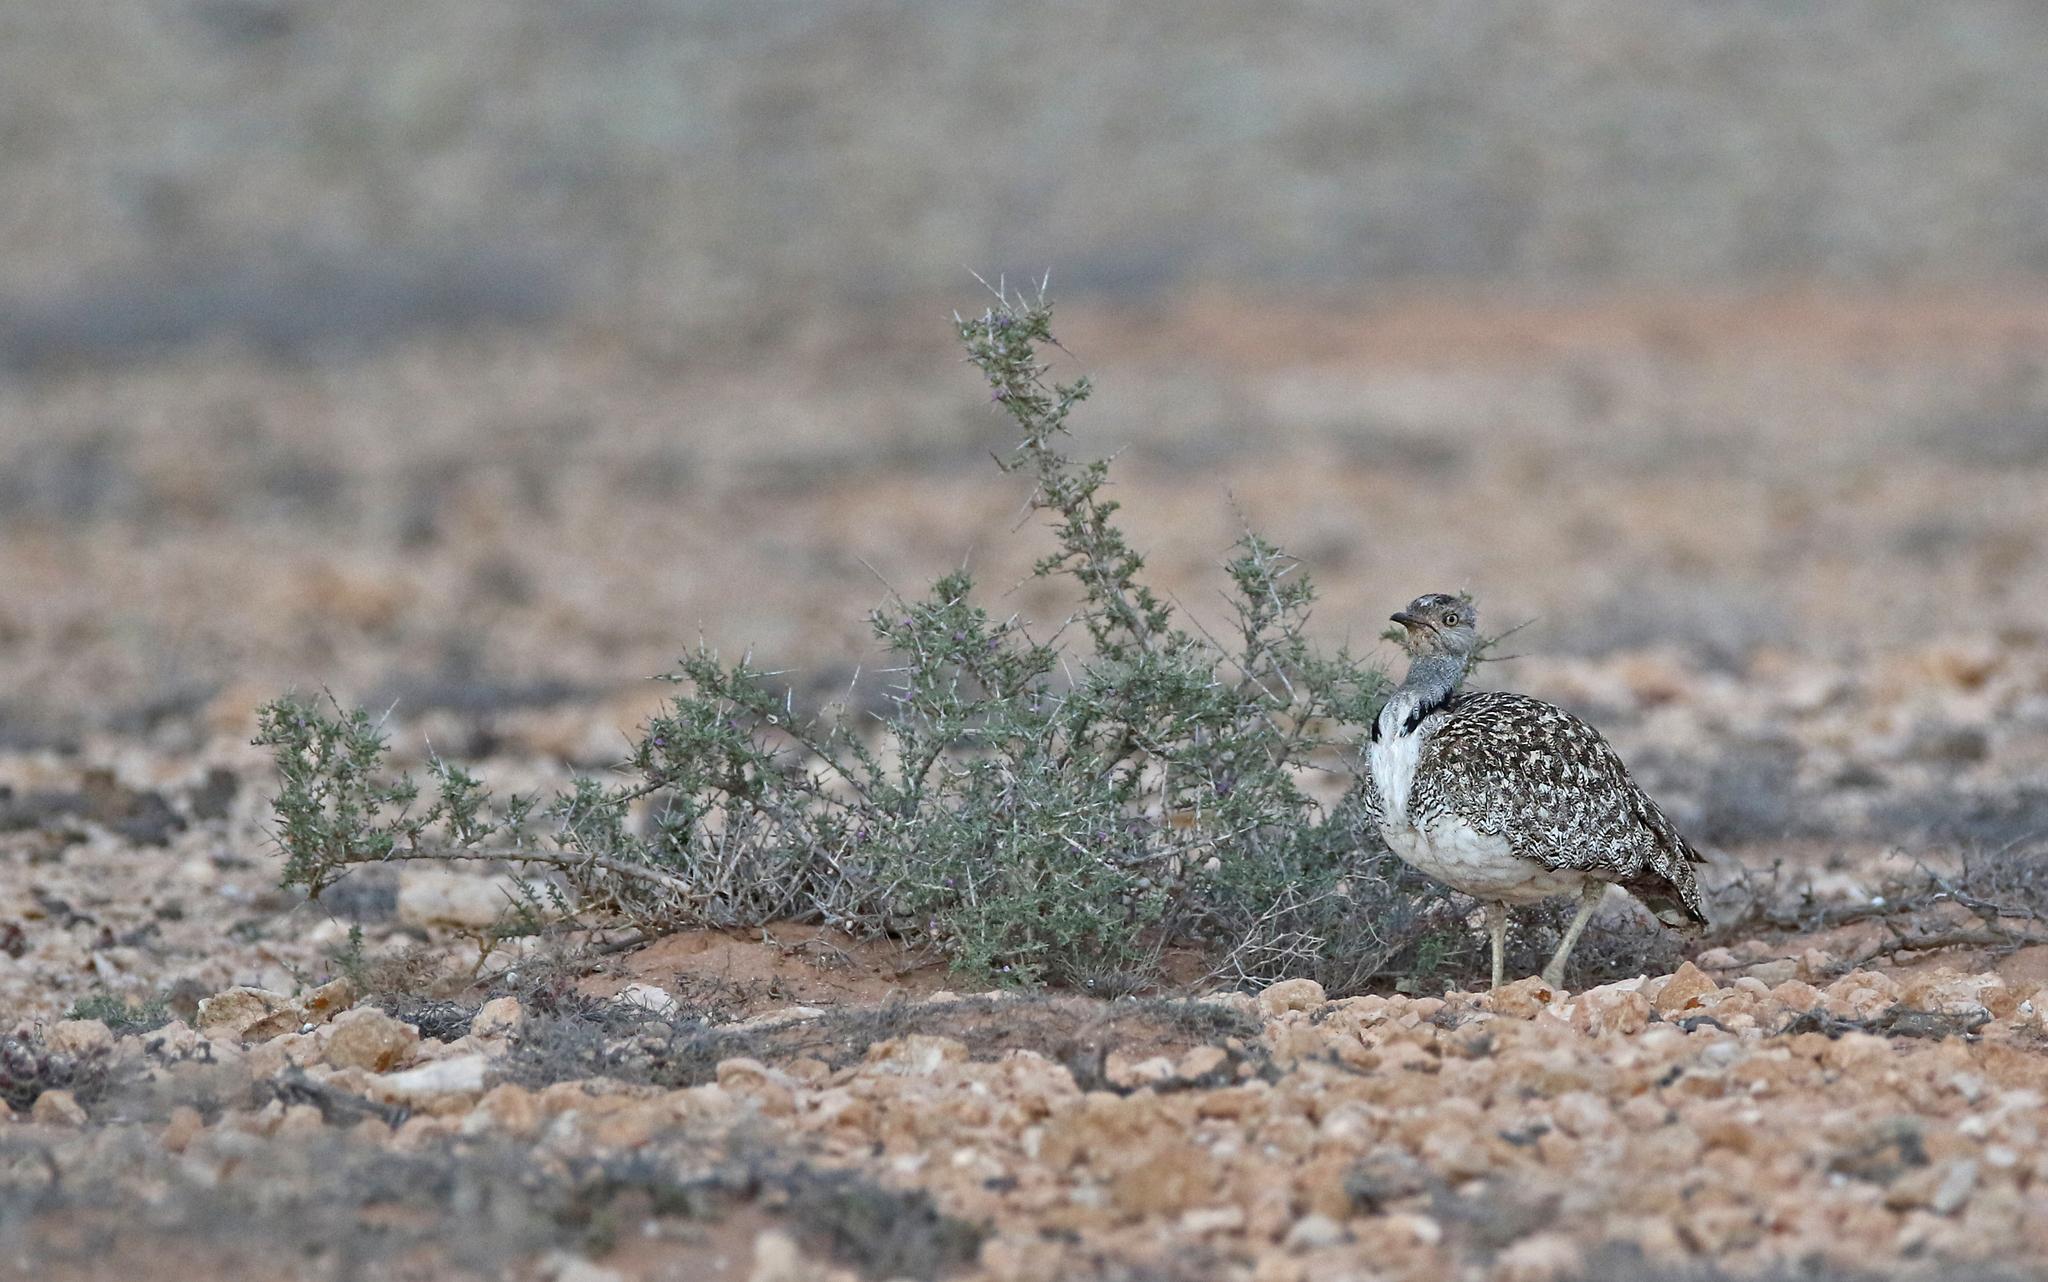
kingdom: Animalia
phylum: Chordata
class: Aves
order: Otidiformes
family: Otididae
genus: Chlamydotis
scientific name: Chlamydotis undulata
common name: Houbara bustard
